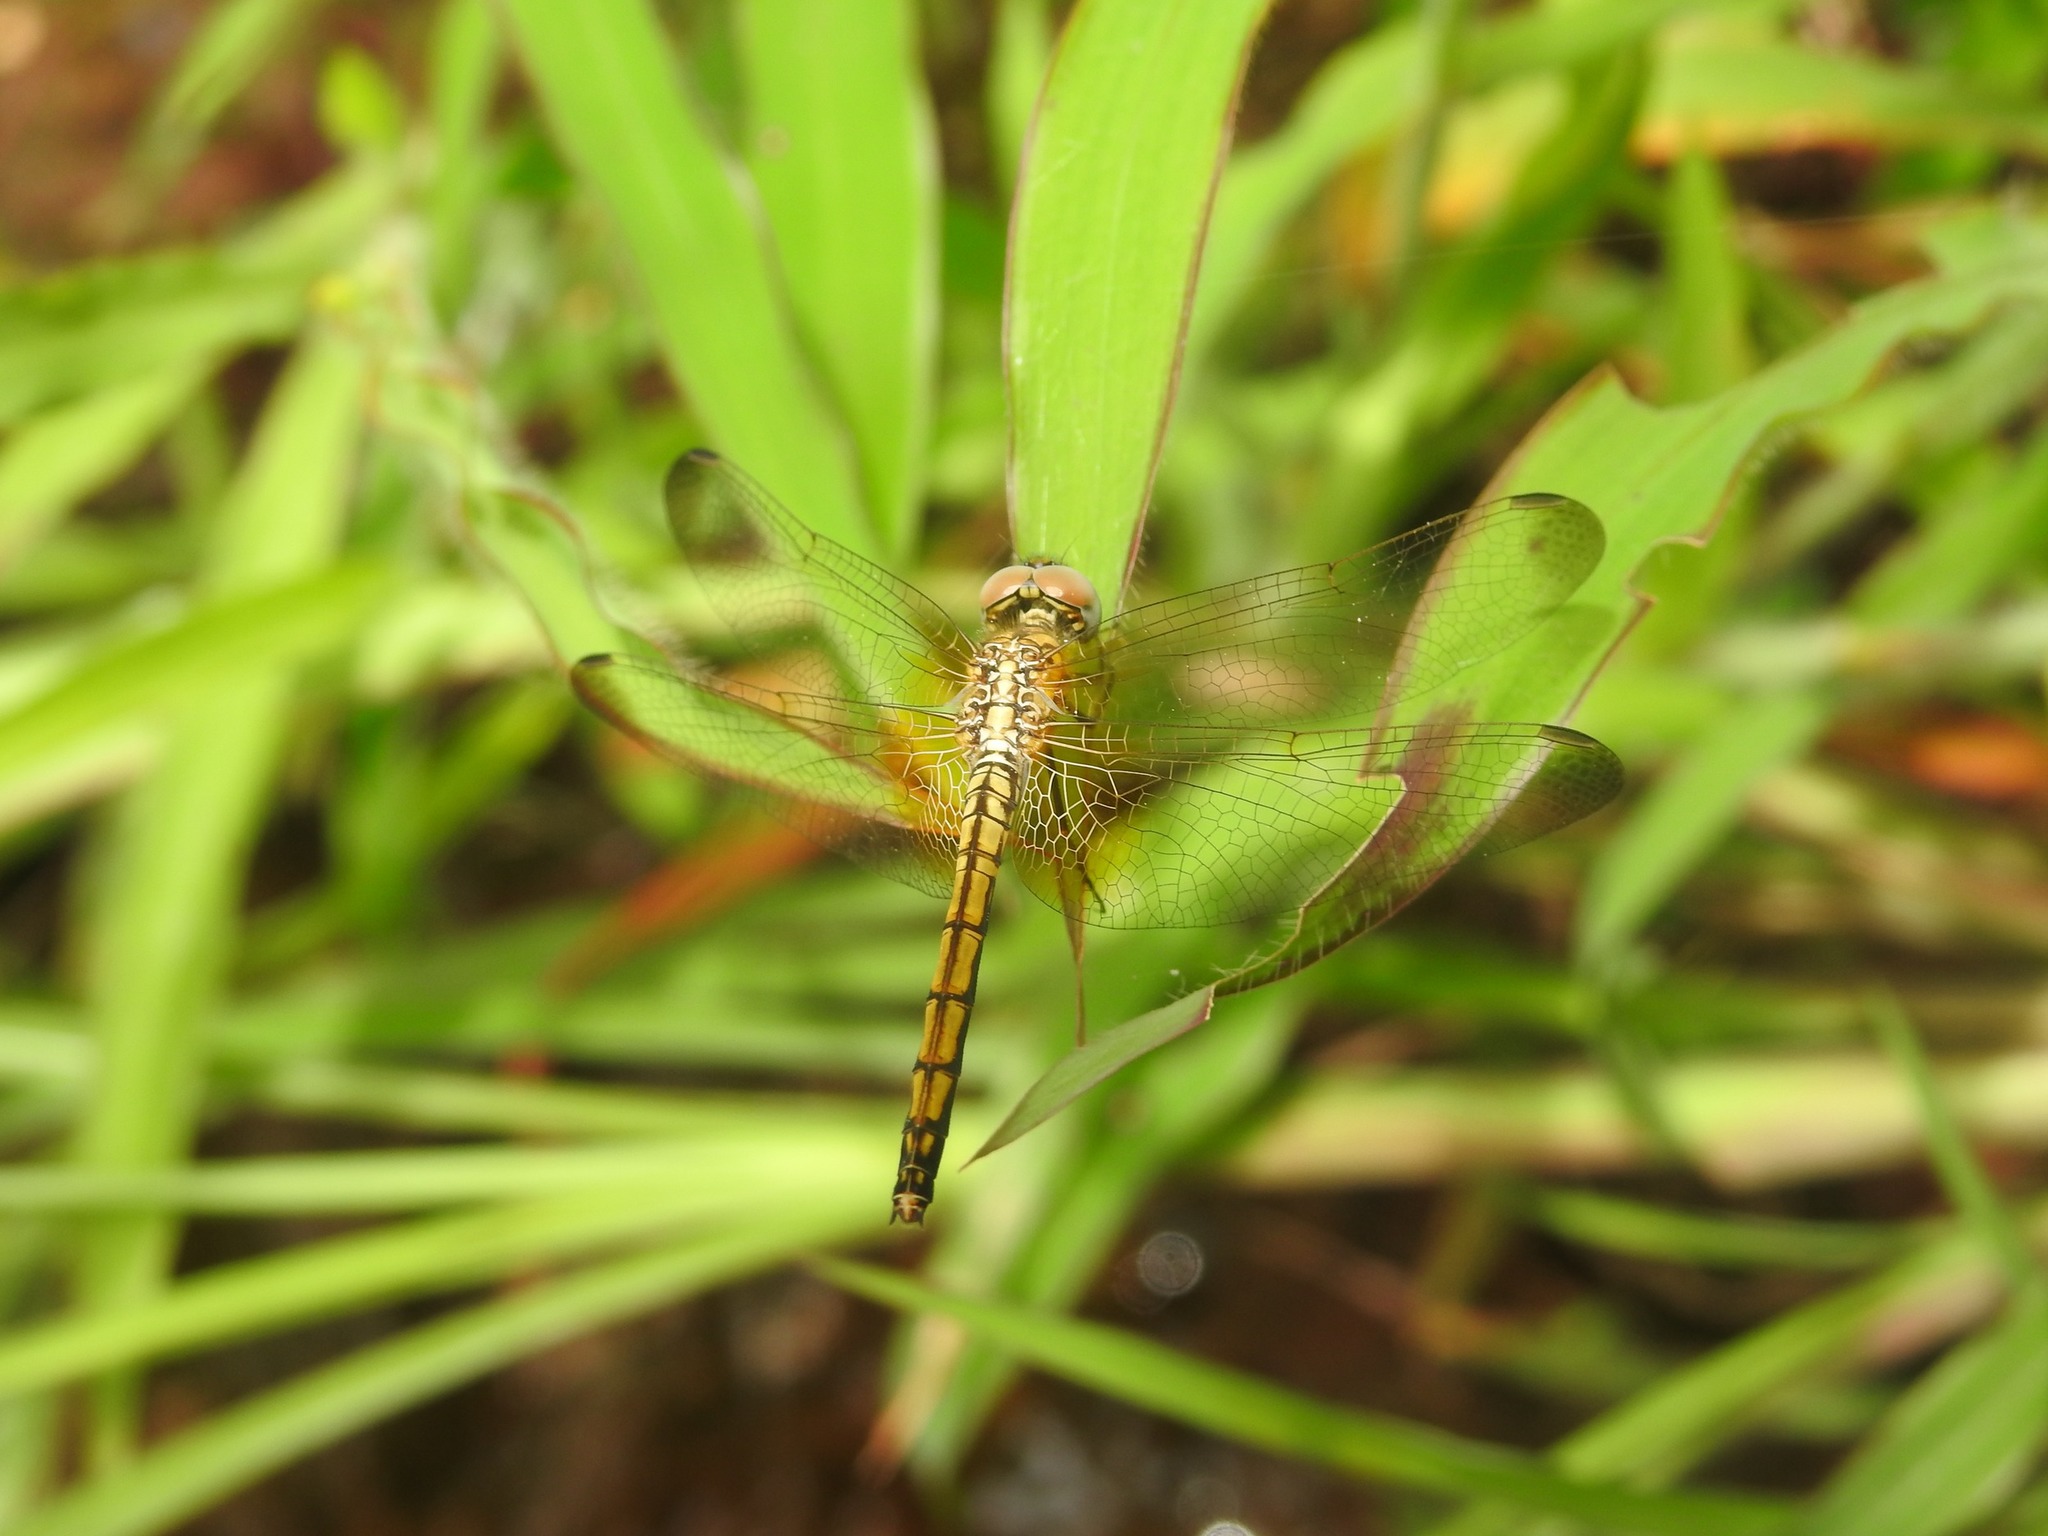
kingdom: Animalia
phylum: Arthropoda
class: Insecta
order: Odonata
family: Libellulidae
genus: Trithemis
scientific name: Trithemis aurora
